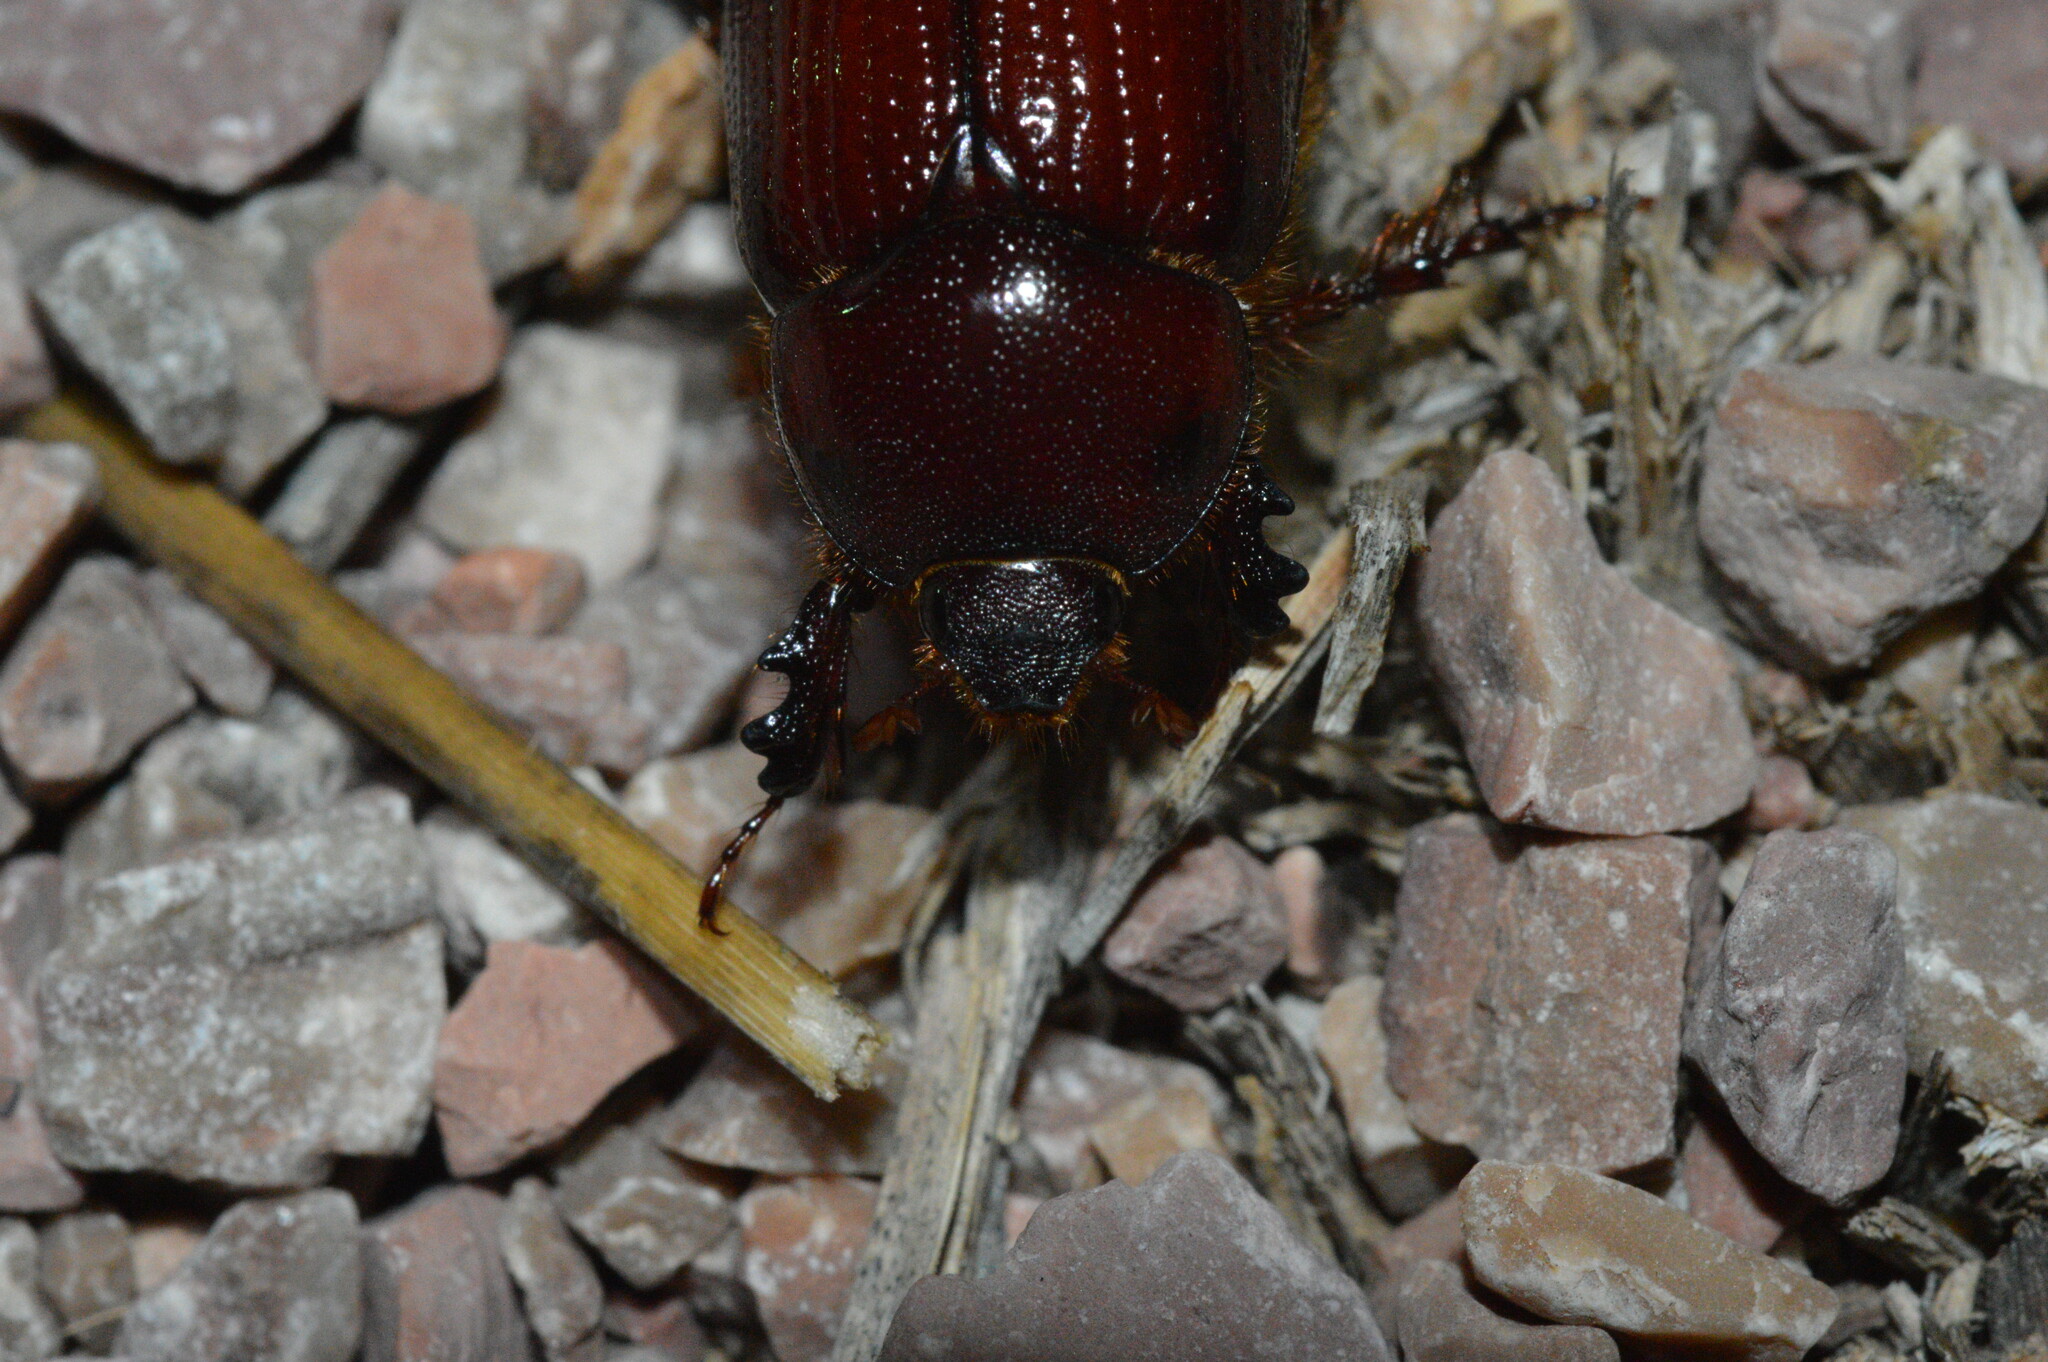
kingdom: Animalia
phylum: Arthropoda
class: Insecta
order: Coleoptera
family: Scarabaeidae
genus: Orizabus
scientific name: Orizabus pyriformis
